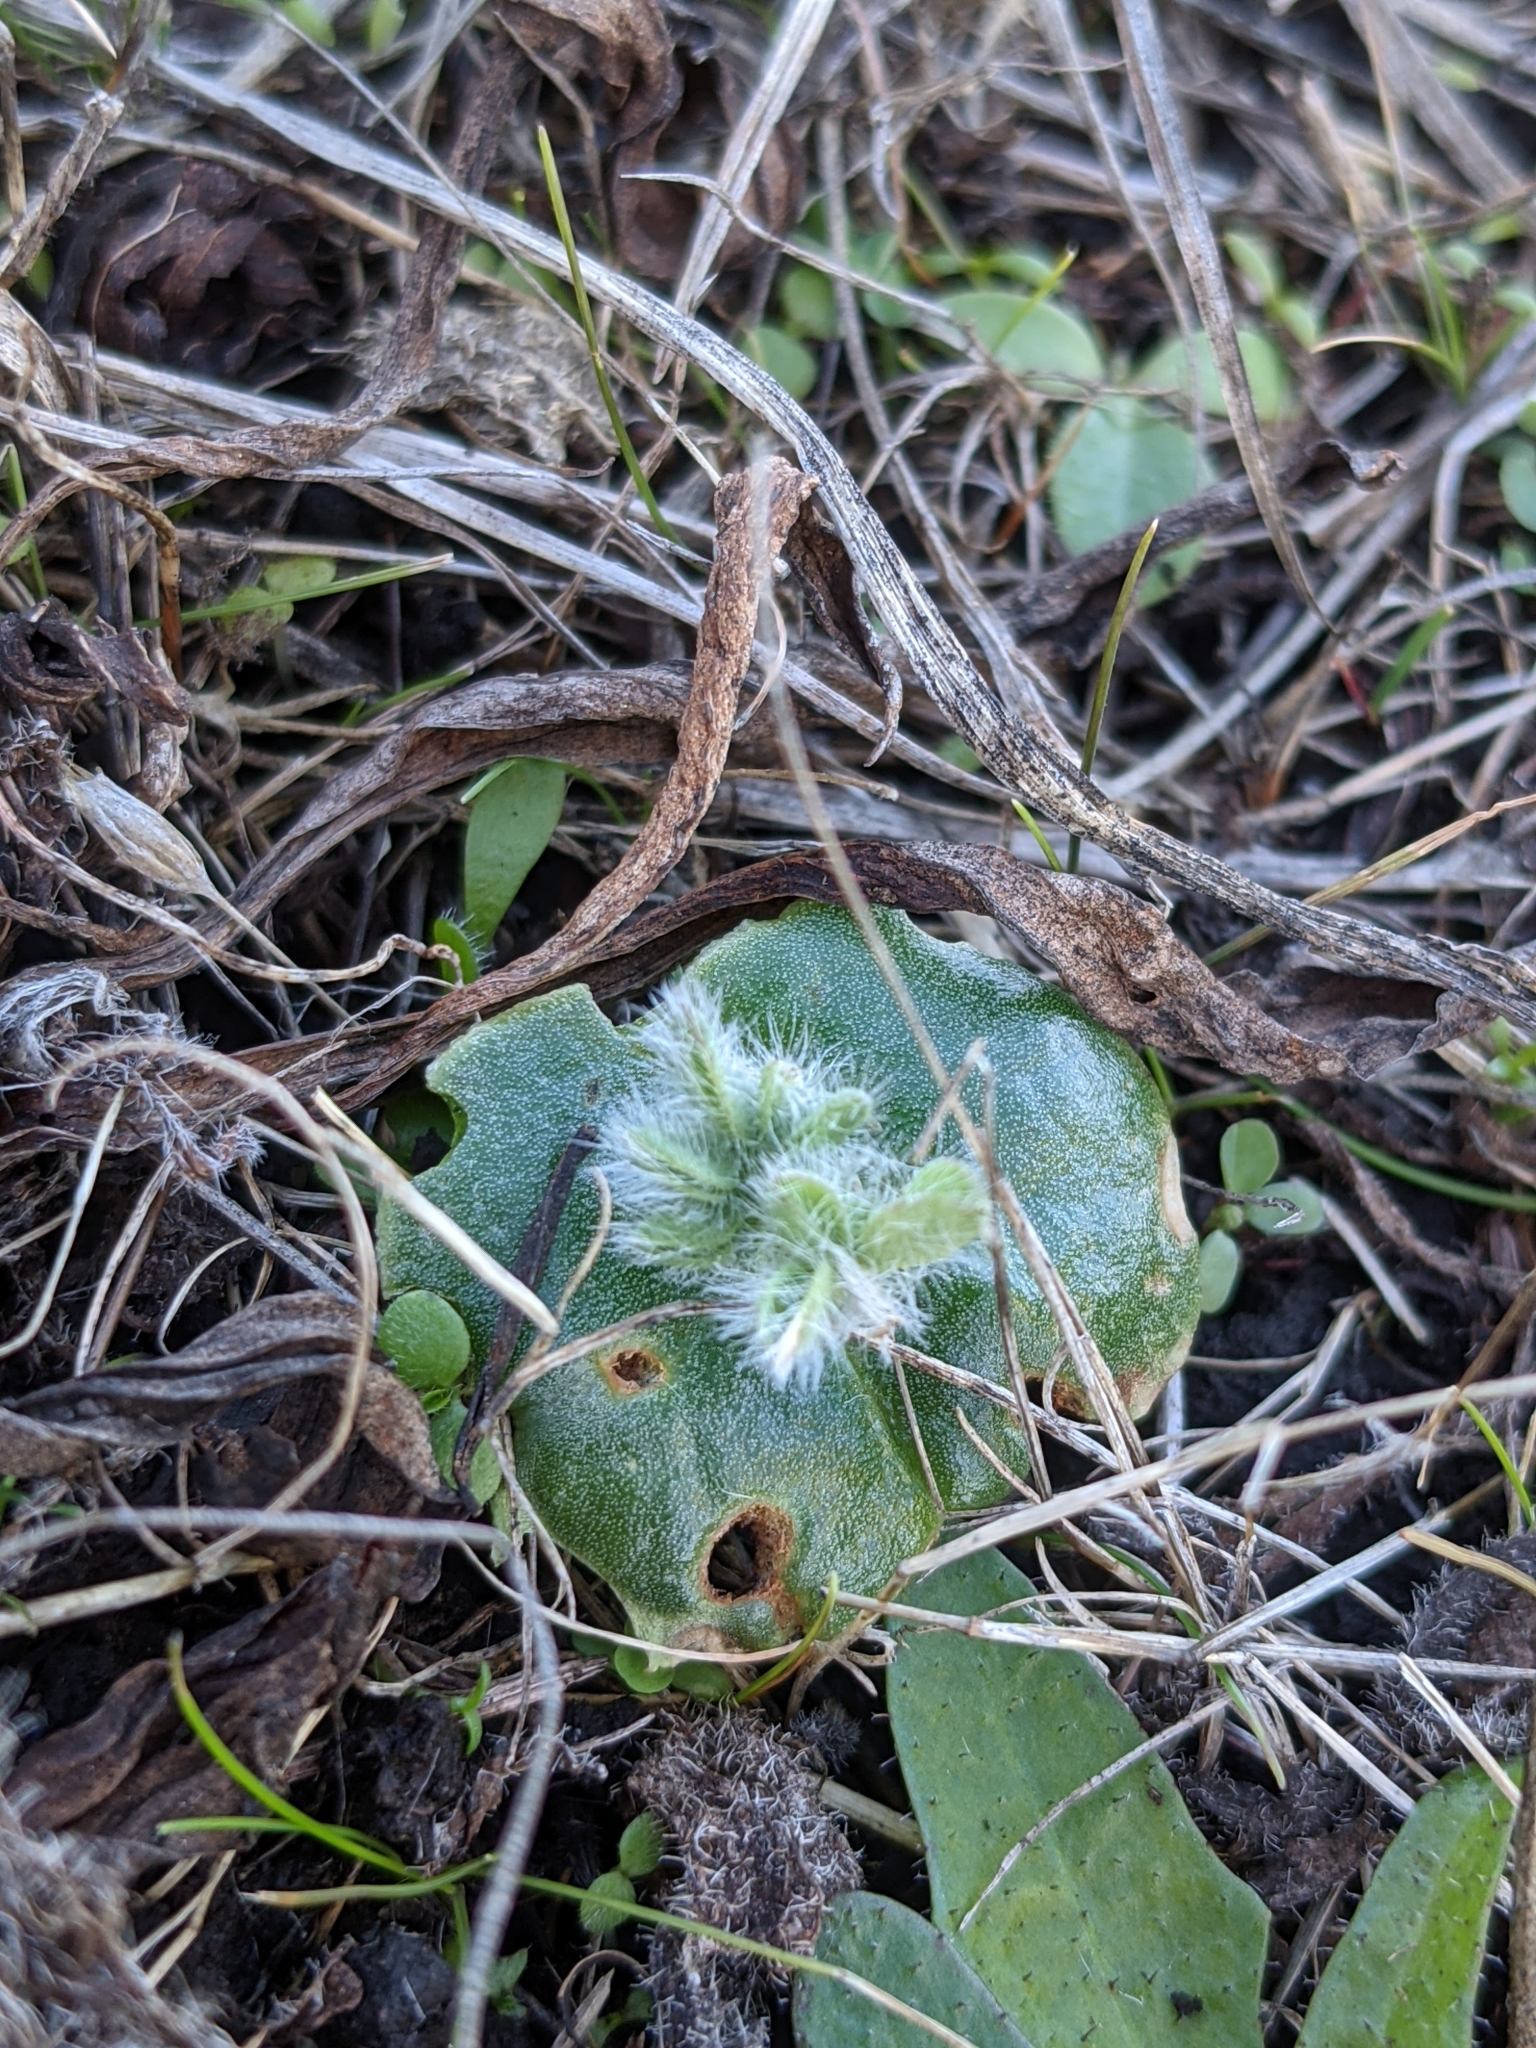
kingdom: Plantae
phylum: Tracheophyta
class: Magnoliopsida
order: Fabales
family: Fabaceae
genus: Lupinus
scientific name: Lupinus densiflorus
